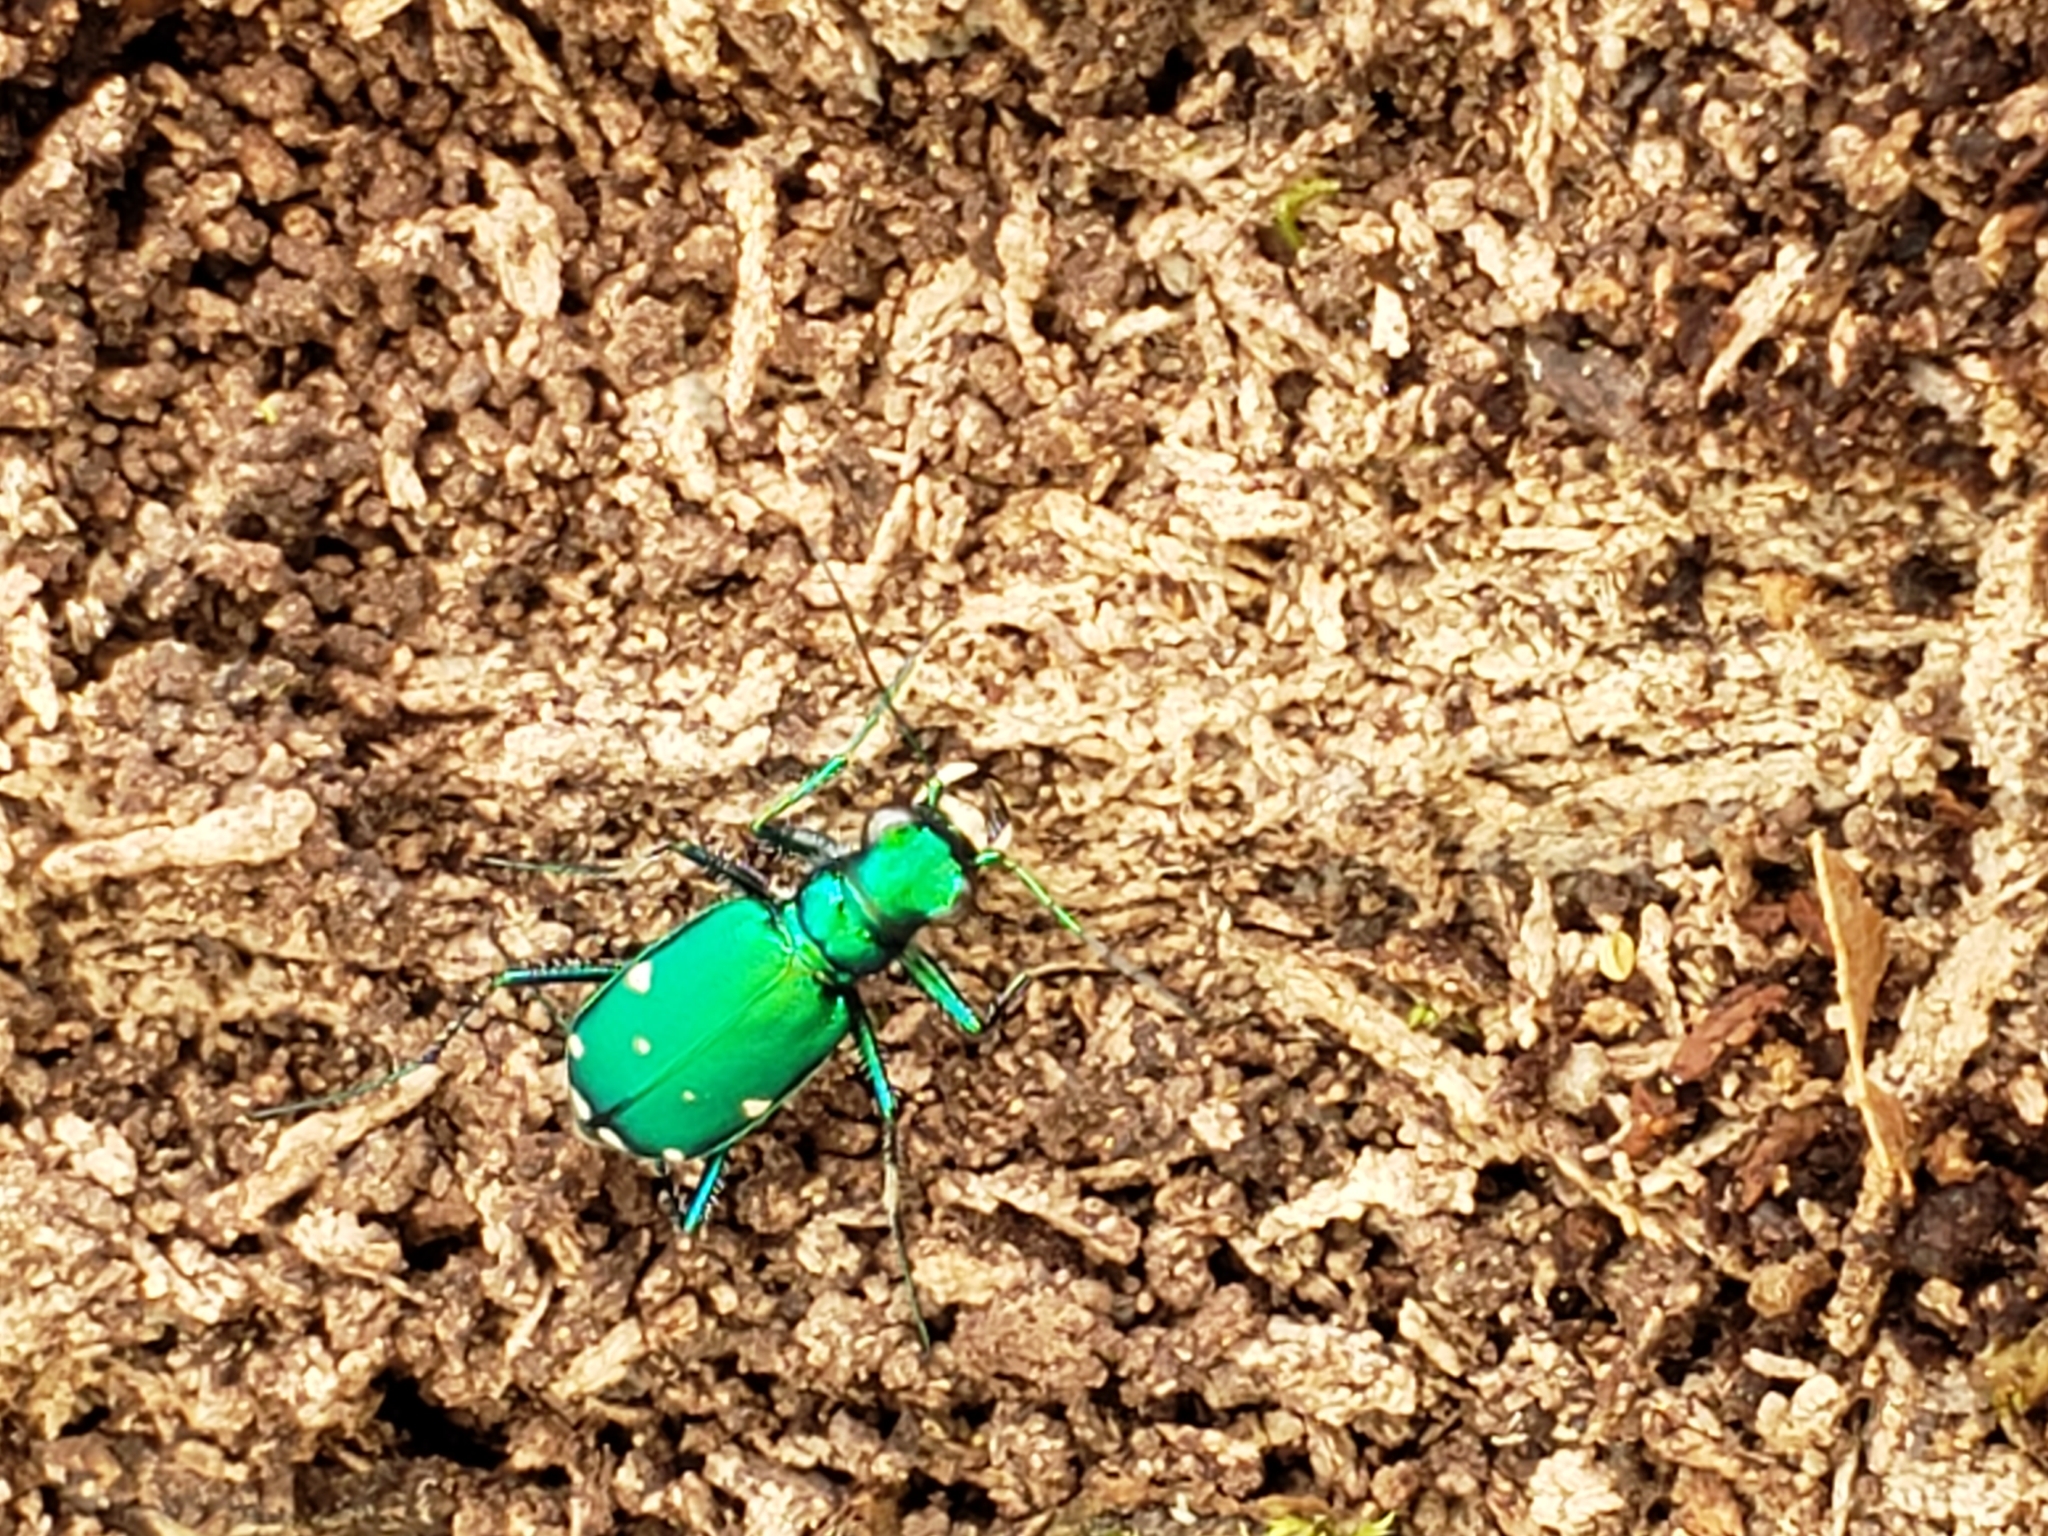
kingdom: Animalia
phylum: Arthropoda
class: Insecta
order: Coleoptera
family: Carabidae
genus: Cicindela
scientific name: Cicindela sexguttata
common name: Six-spotted tiger beetle
